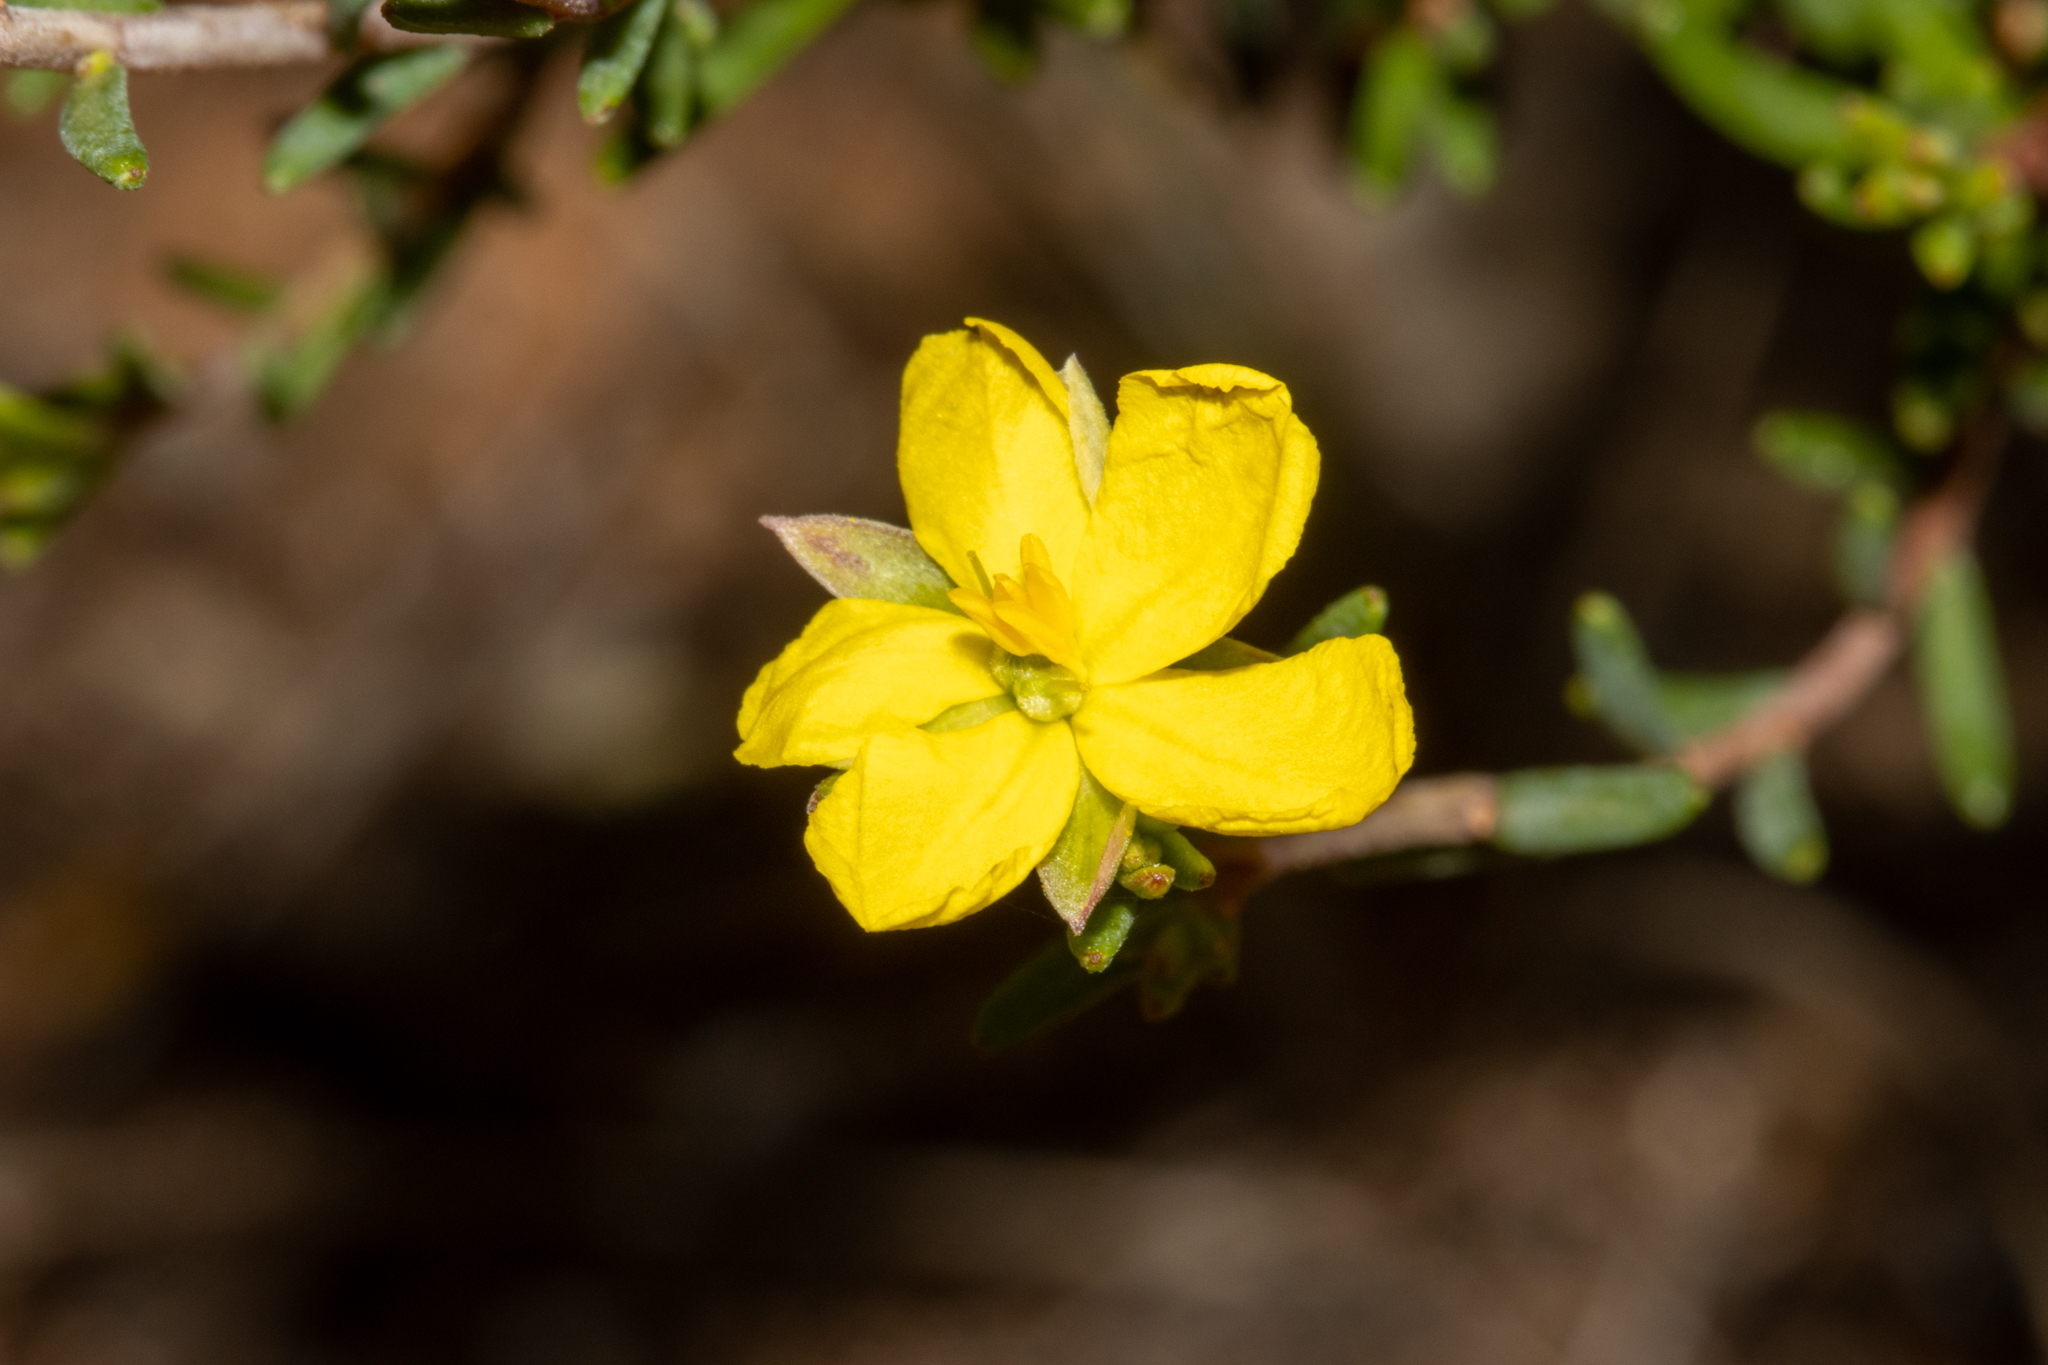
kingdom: Plantae
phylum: Tracheophyta
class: Magnoliopsida
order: Dilleniales
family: Dilleniaceae
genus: Hibbertia
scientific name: Hibbertia devitata
